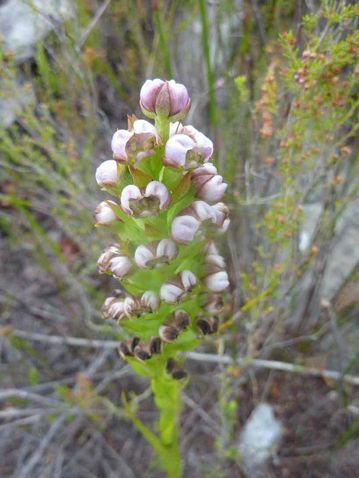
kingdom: Plantae
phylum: Tracheophyta
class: Liliopsida
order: Asparagales
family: Orchidaceae
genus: Evotella
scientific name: Evotella carnosa
